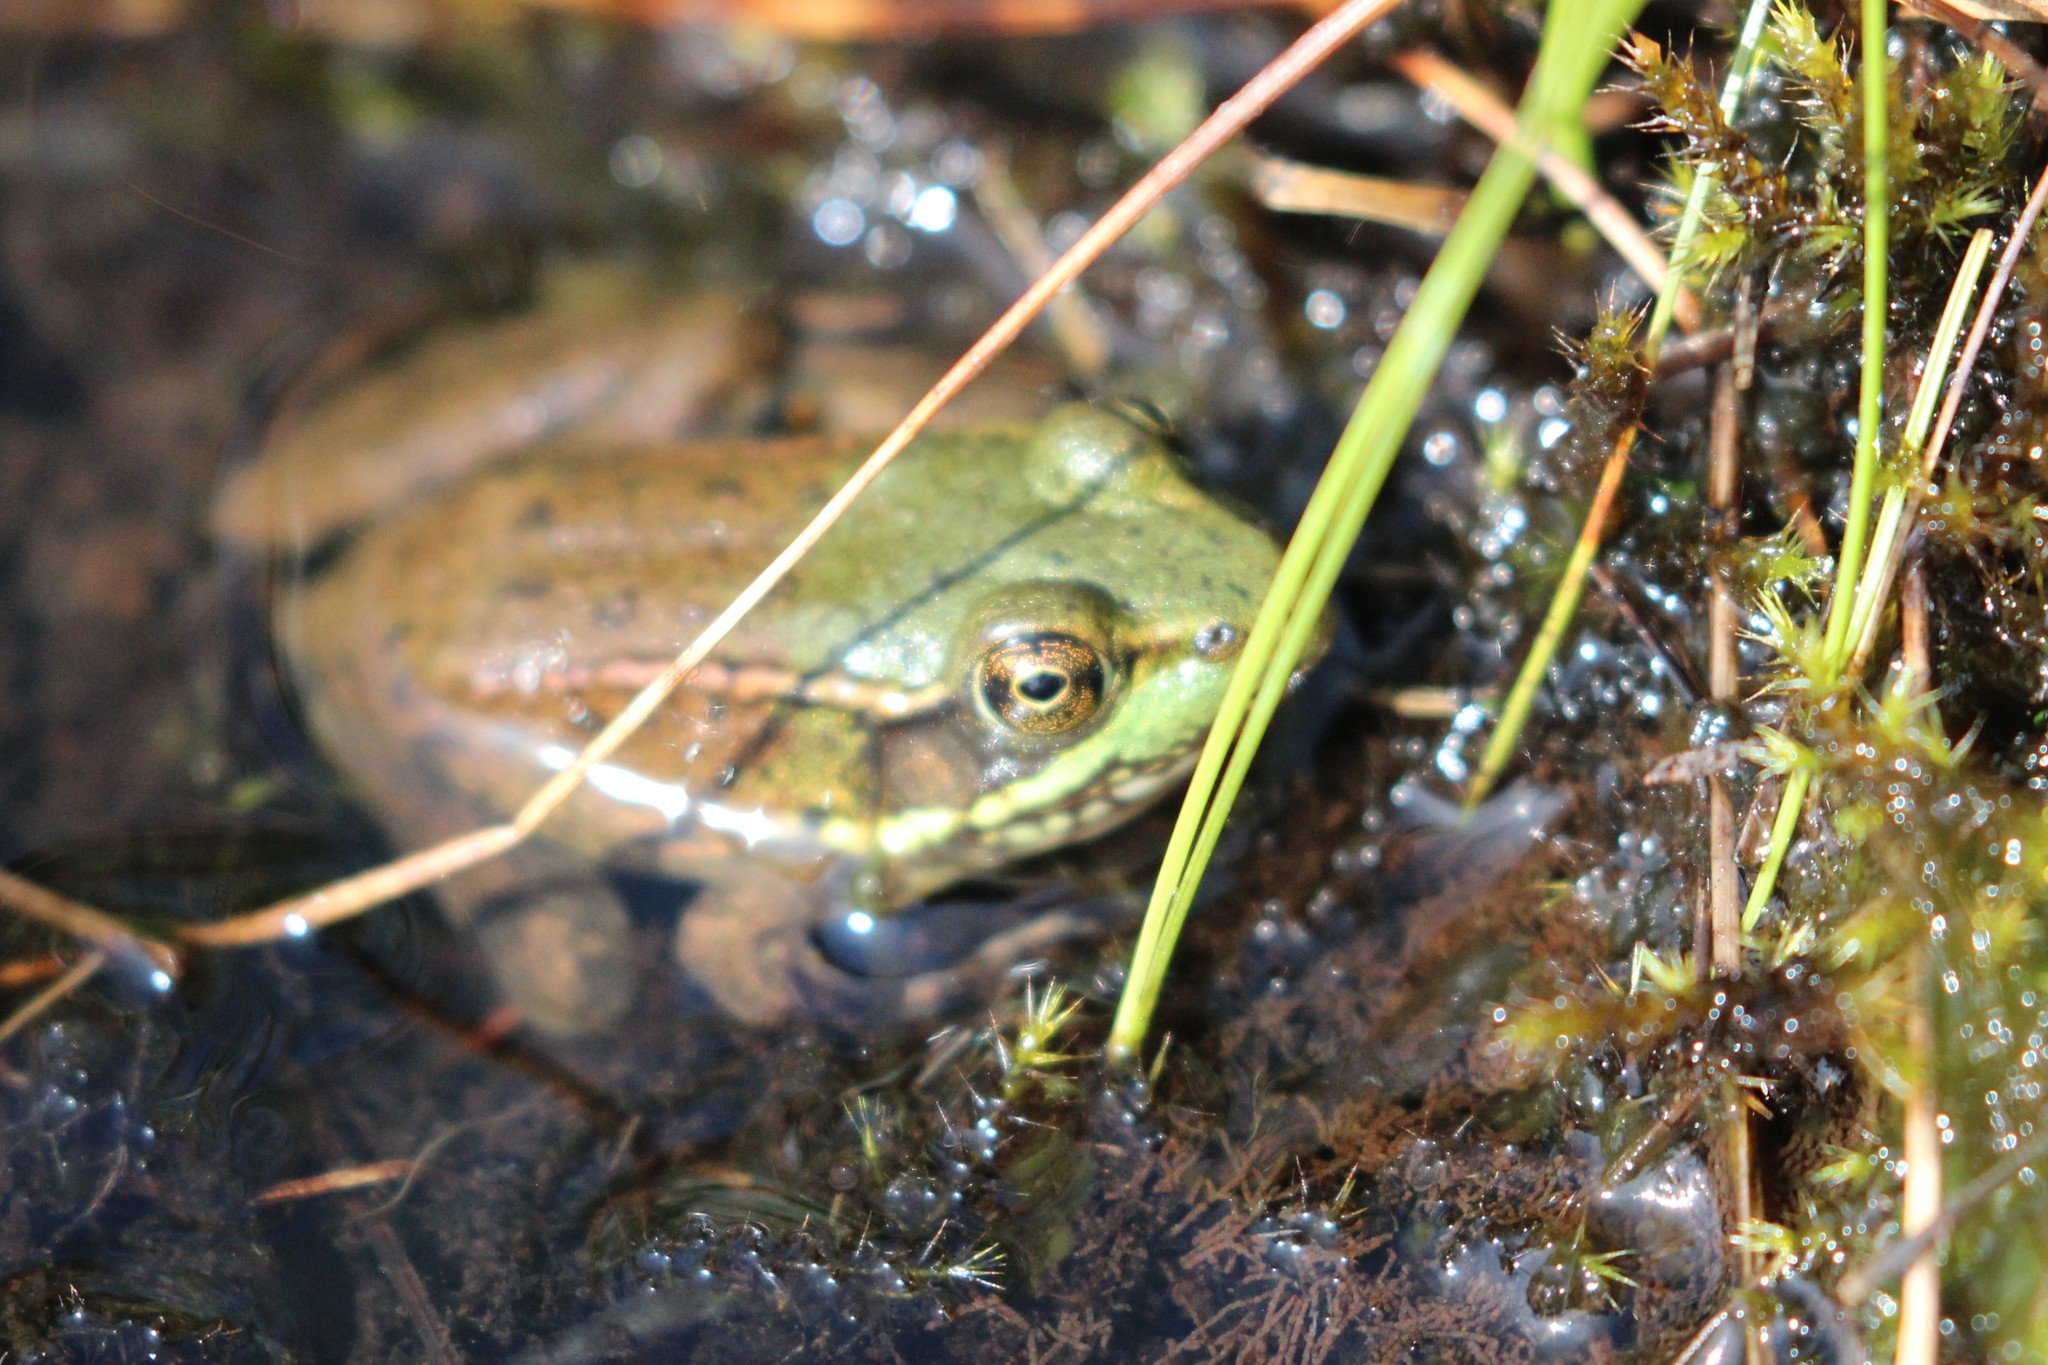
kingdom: Animalia
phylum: Chordata
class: Amphibia
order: Anura
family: Ranidae
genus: Lithobates
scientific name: Lithobates clamitans
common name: Green frog
